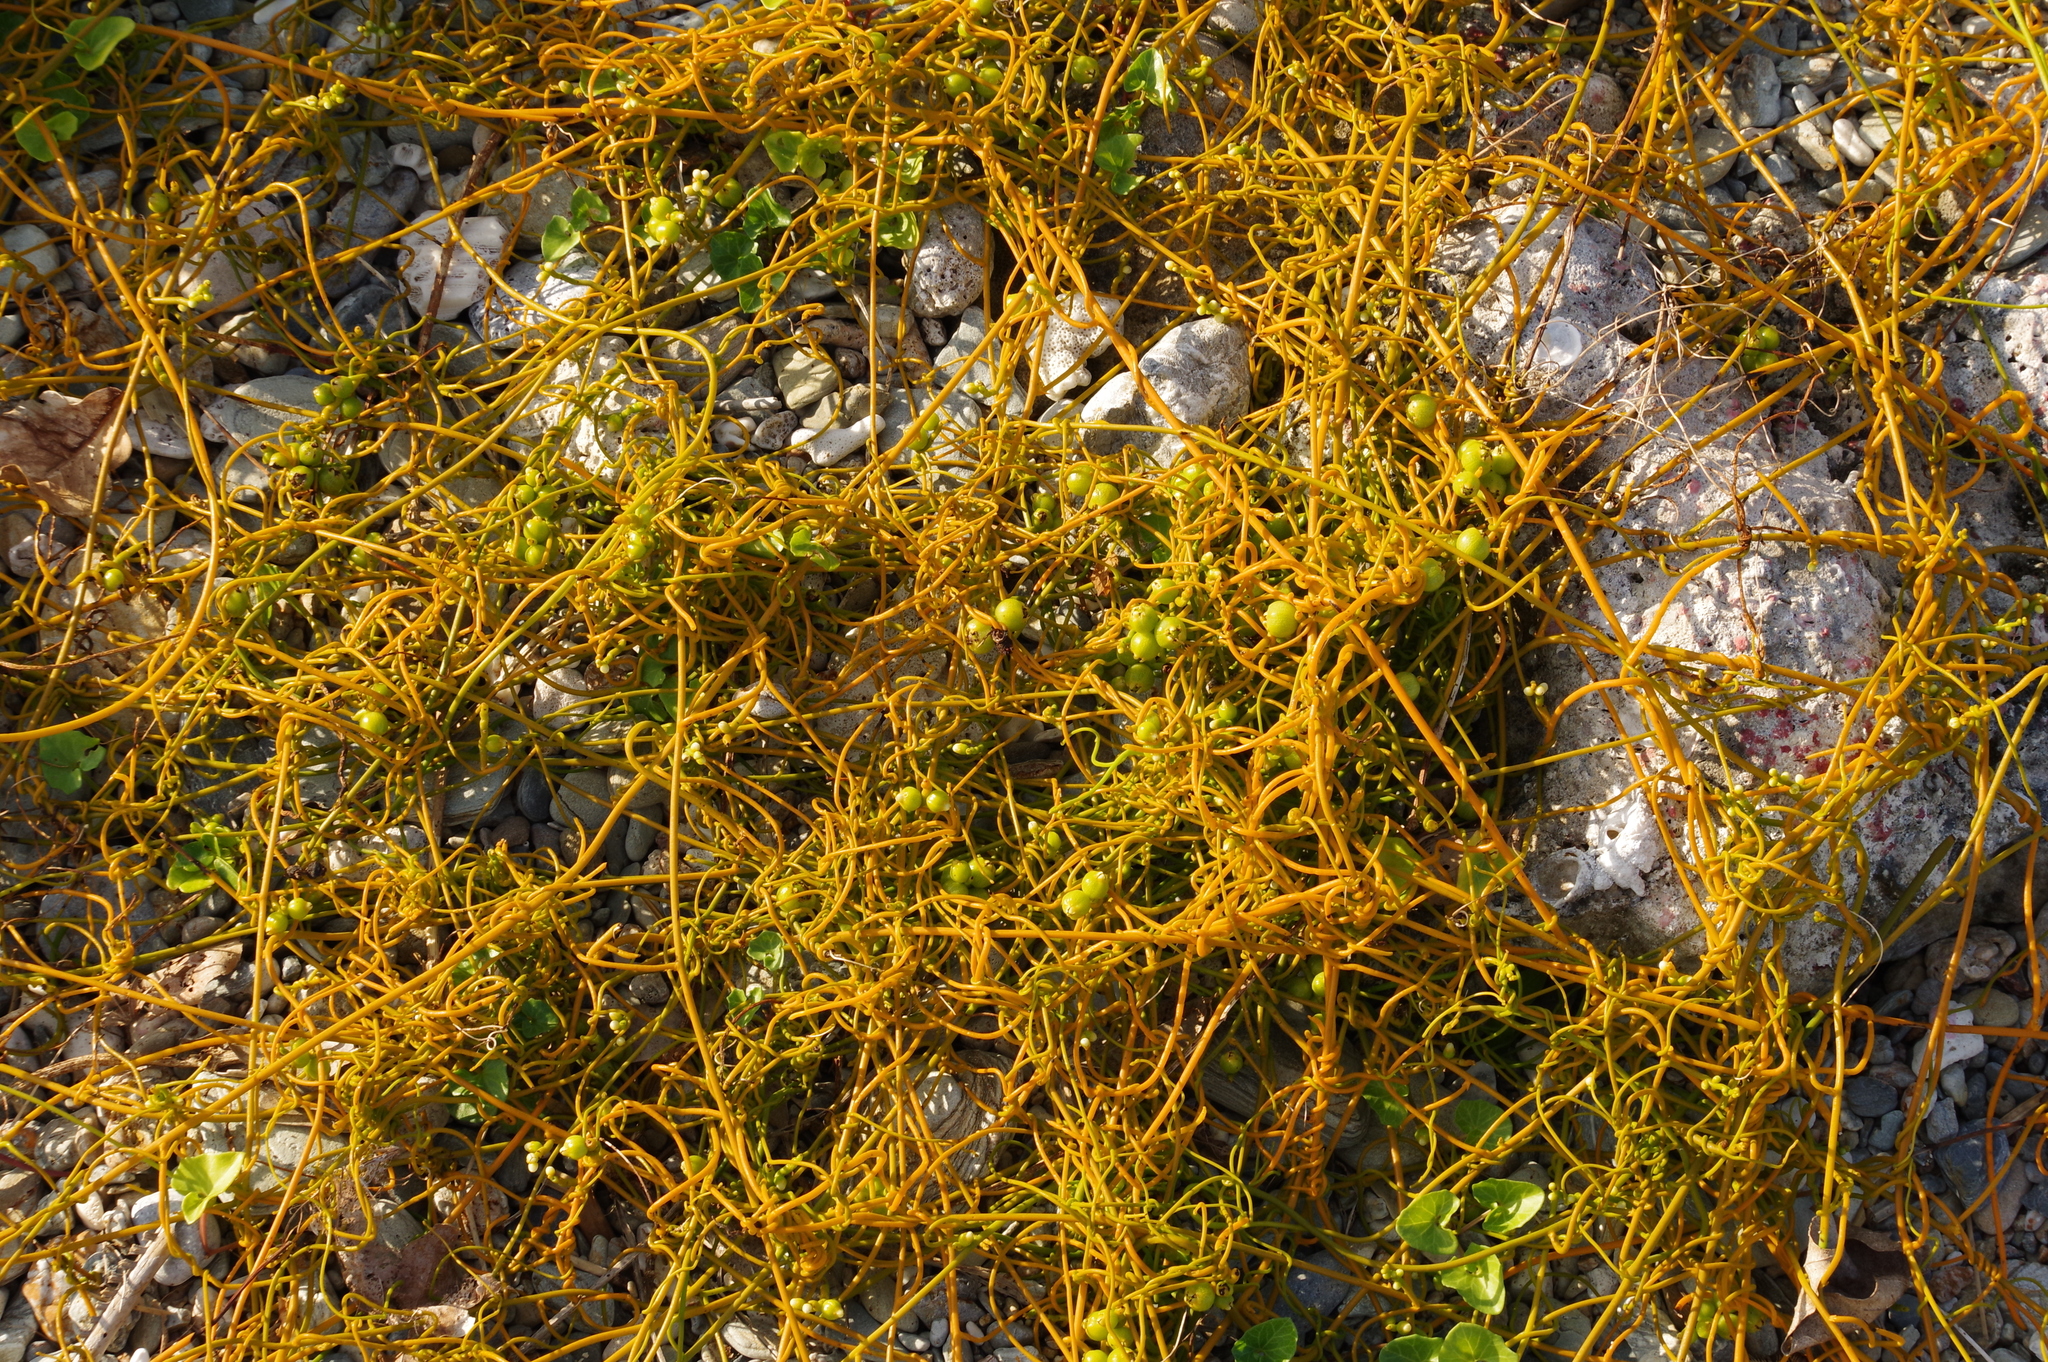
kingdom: Plantae
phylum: Tracheophyta
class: Magnoliopsida
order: Laurales
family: Lauraceae
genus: Cassytha
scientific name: Cassytha filiformis
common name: Dodder-laurel
